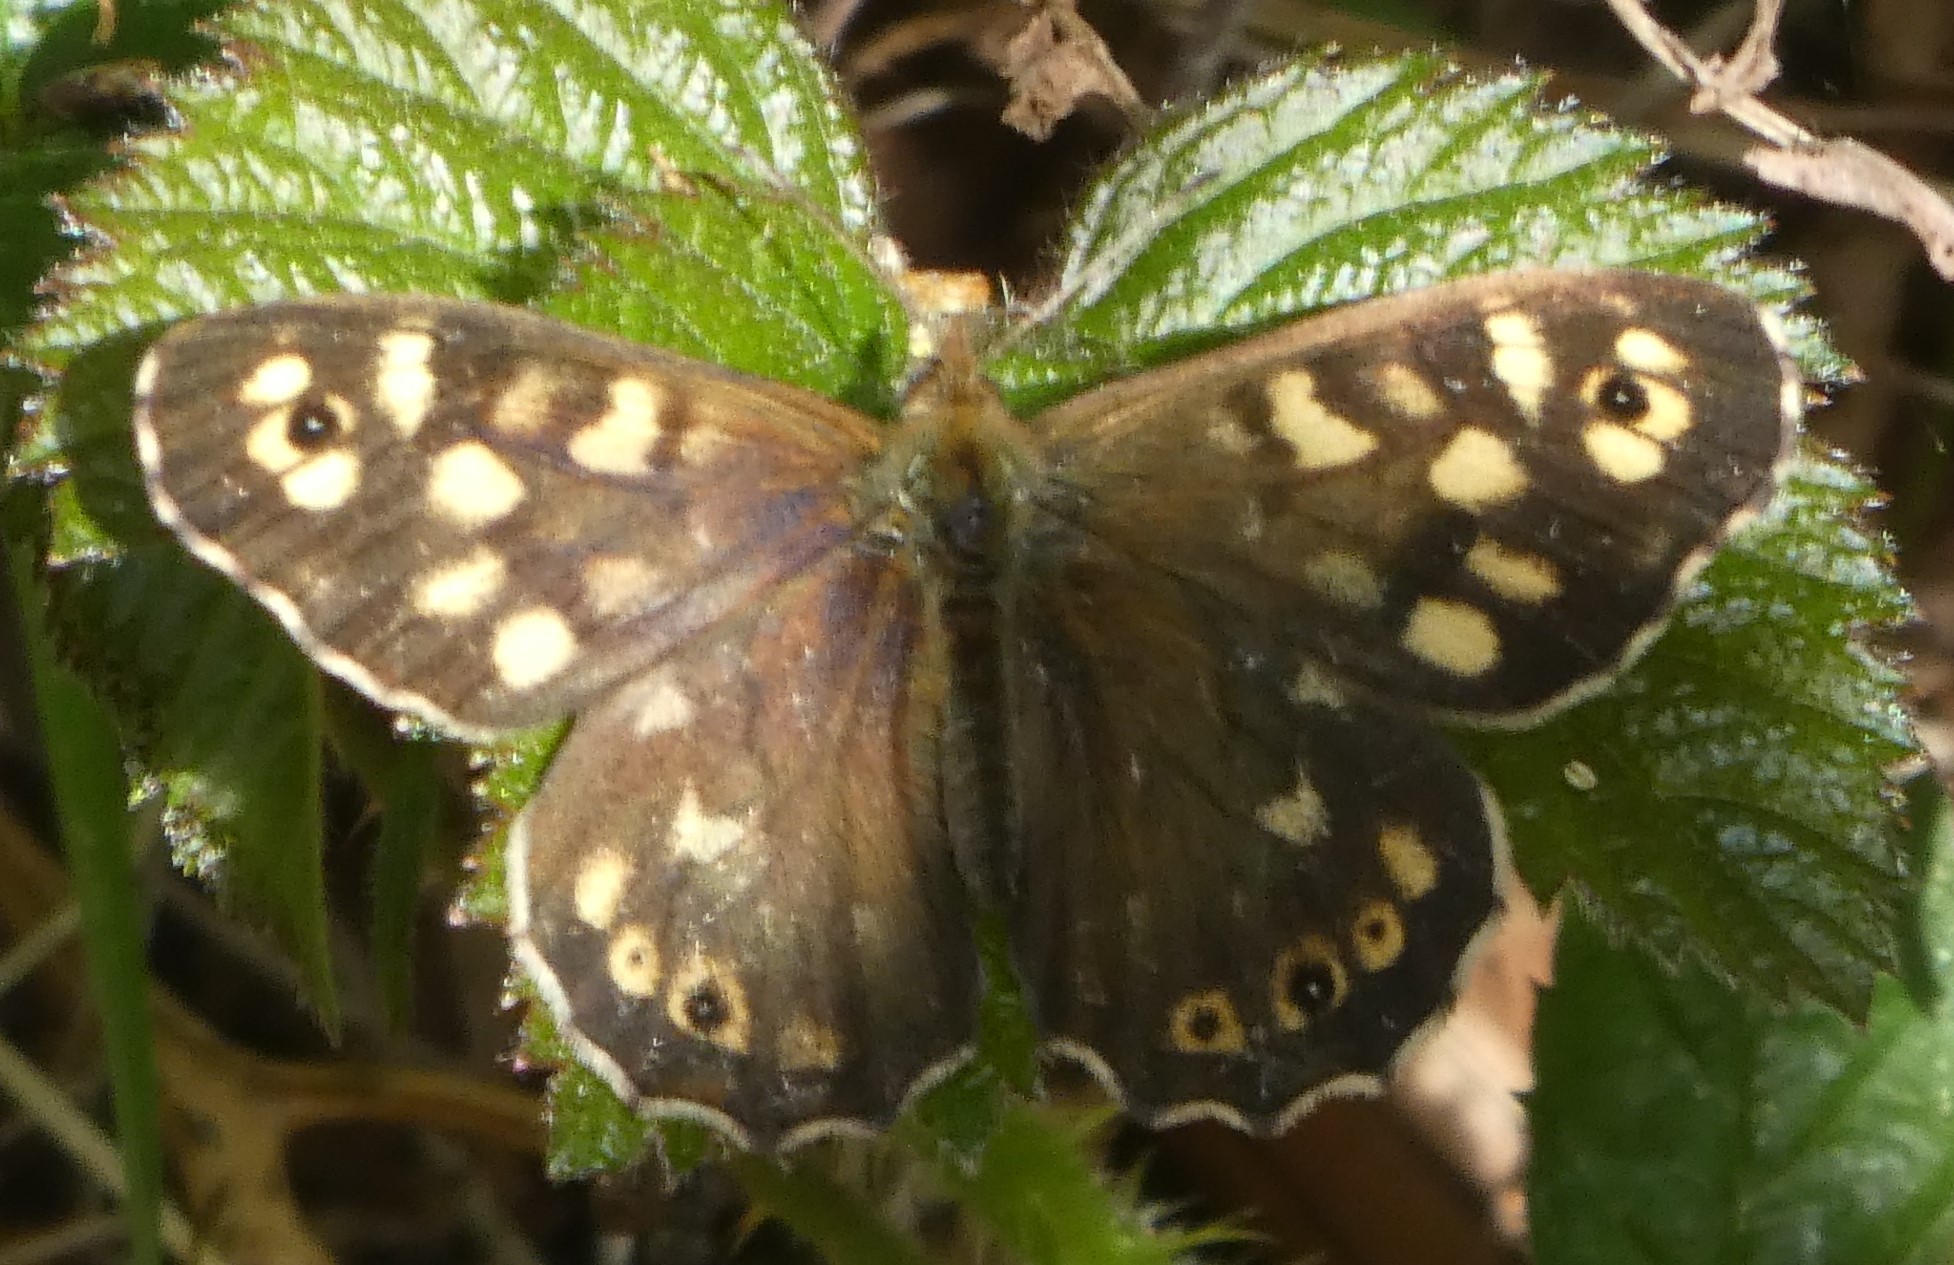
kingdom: Animalia
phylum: Arthropoda
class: Insecta
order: Lepidoptera
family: Nymphalidae
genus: Pararge
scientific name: Pararge aegeria
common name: Speckled wood
